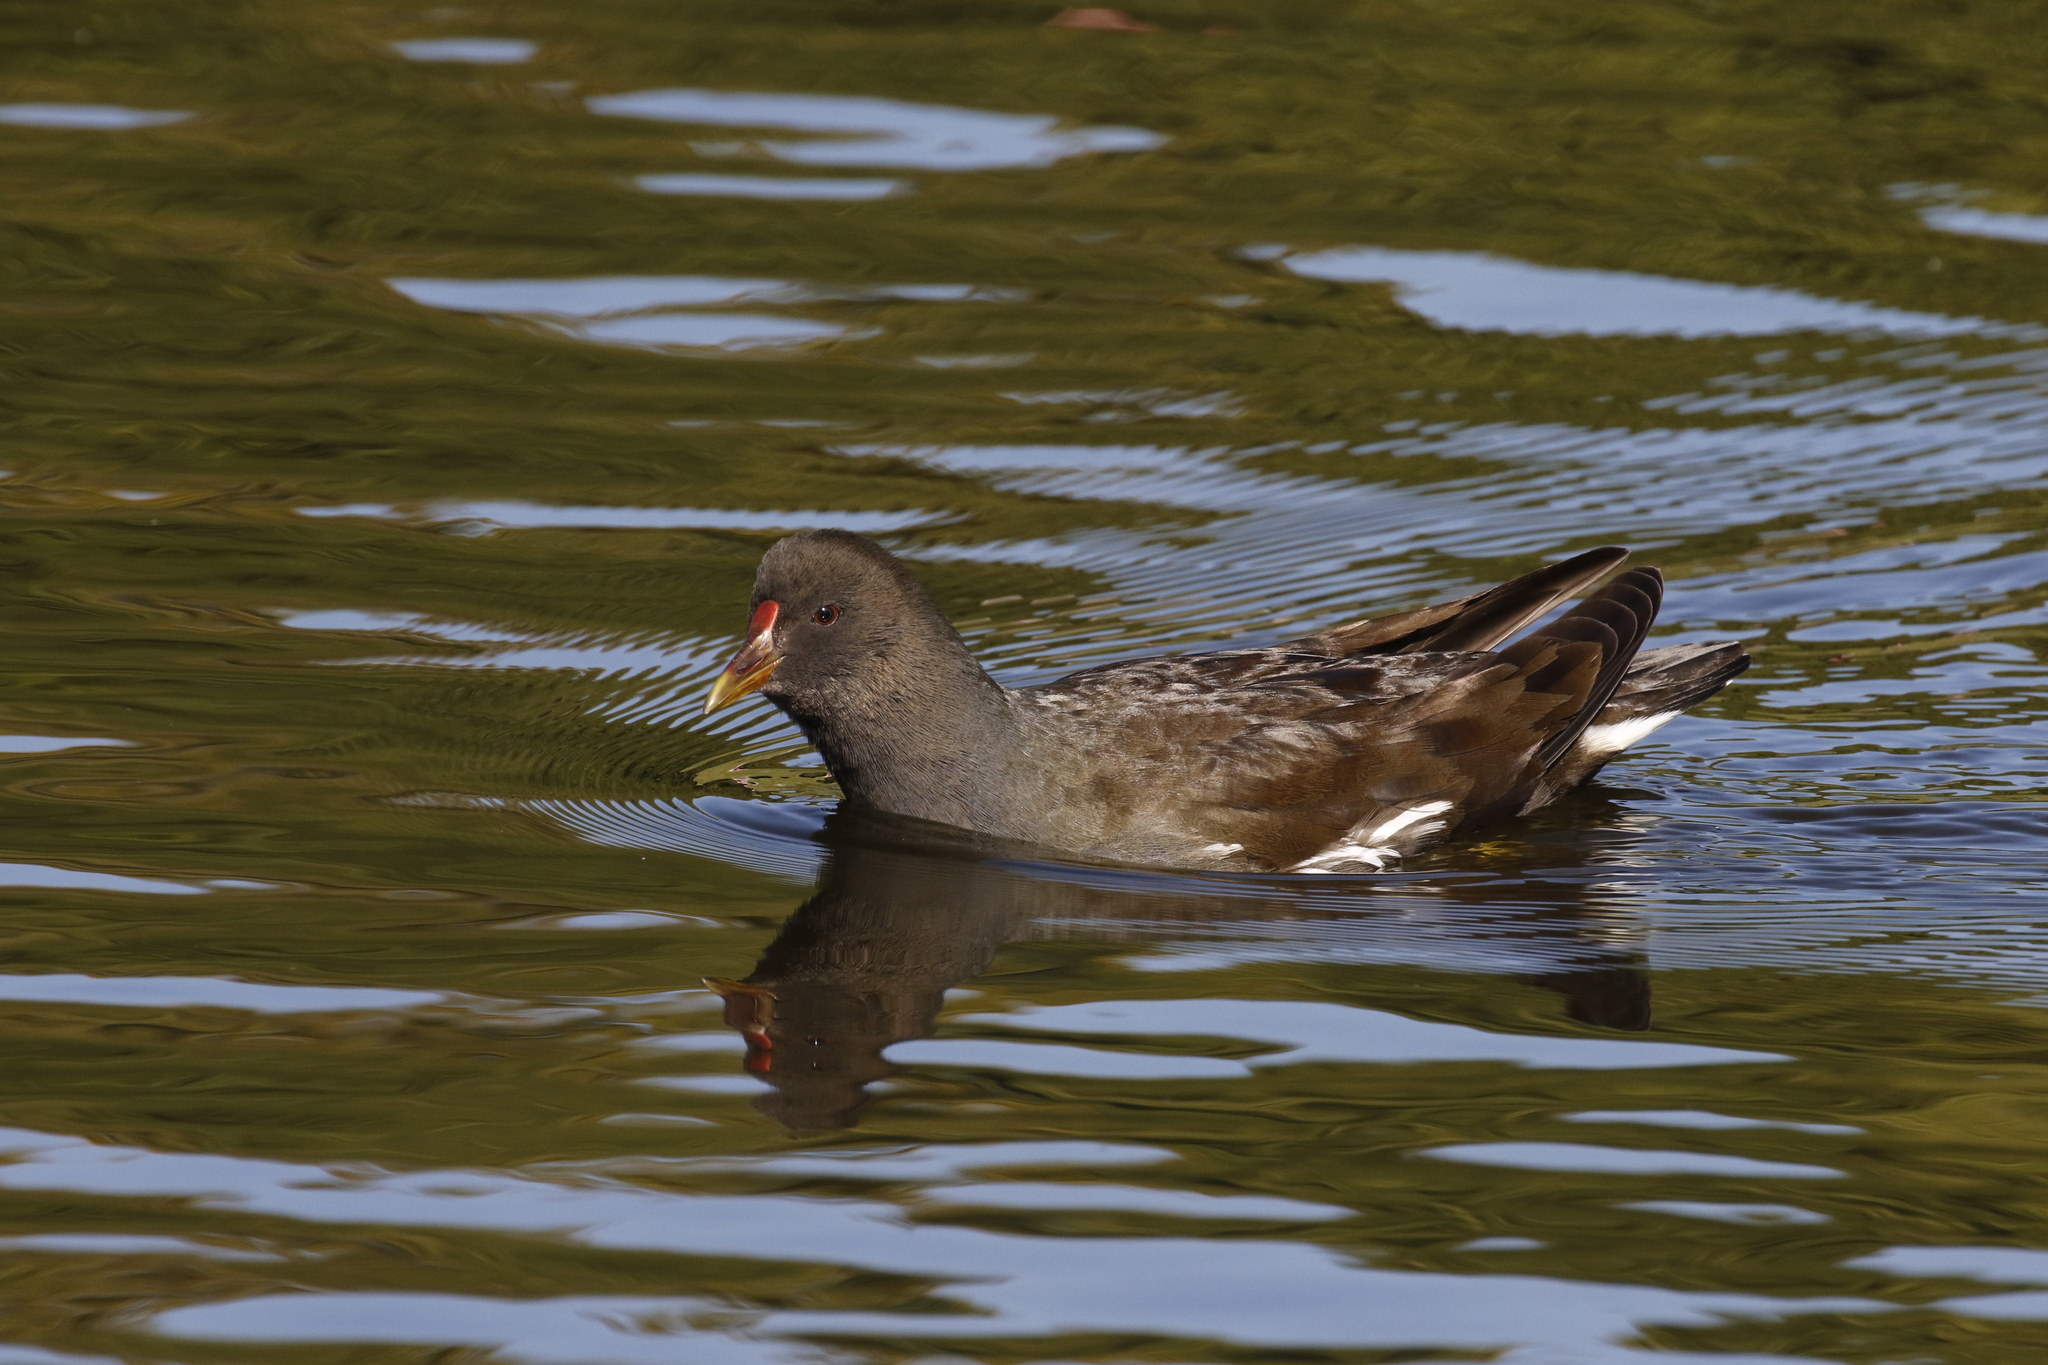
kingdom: Animalia
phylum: Chordata
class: Aves
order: Gruiformes
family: Rallidae
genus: Gallinula
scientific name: Gallinula chloropus
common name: Common moorhen
